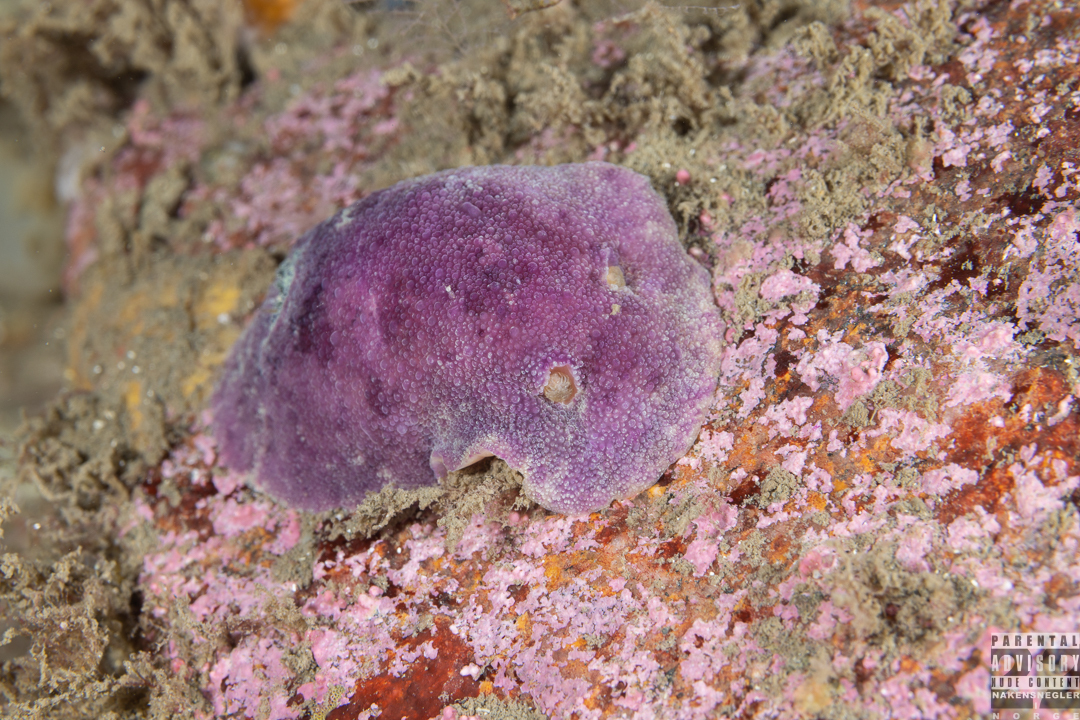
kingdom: Animalia
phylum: Mollusca
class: Gastropoda
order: Nudibranchia
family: Dorididae
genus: Doris
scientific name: Doris pseudoargus
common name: Sea lemon
